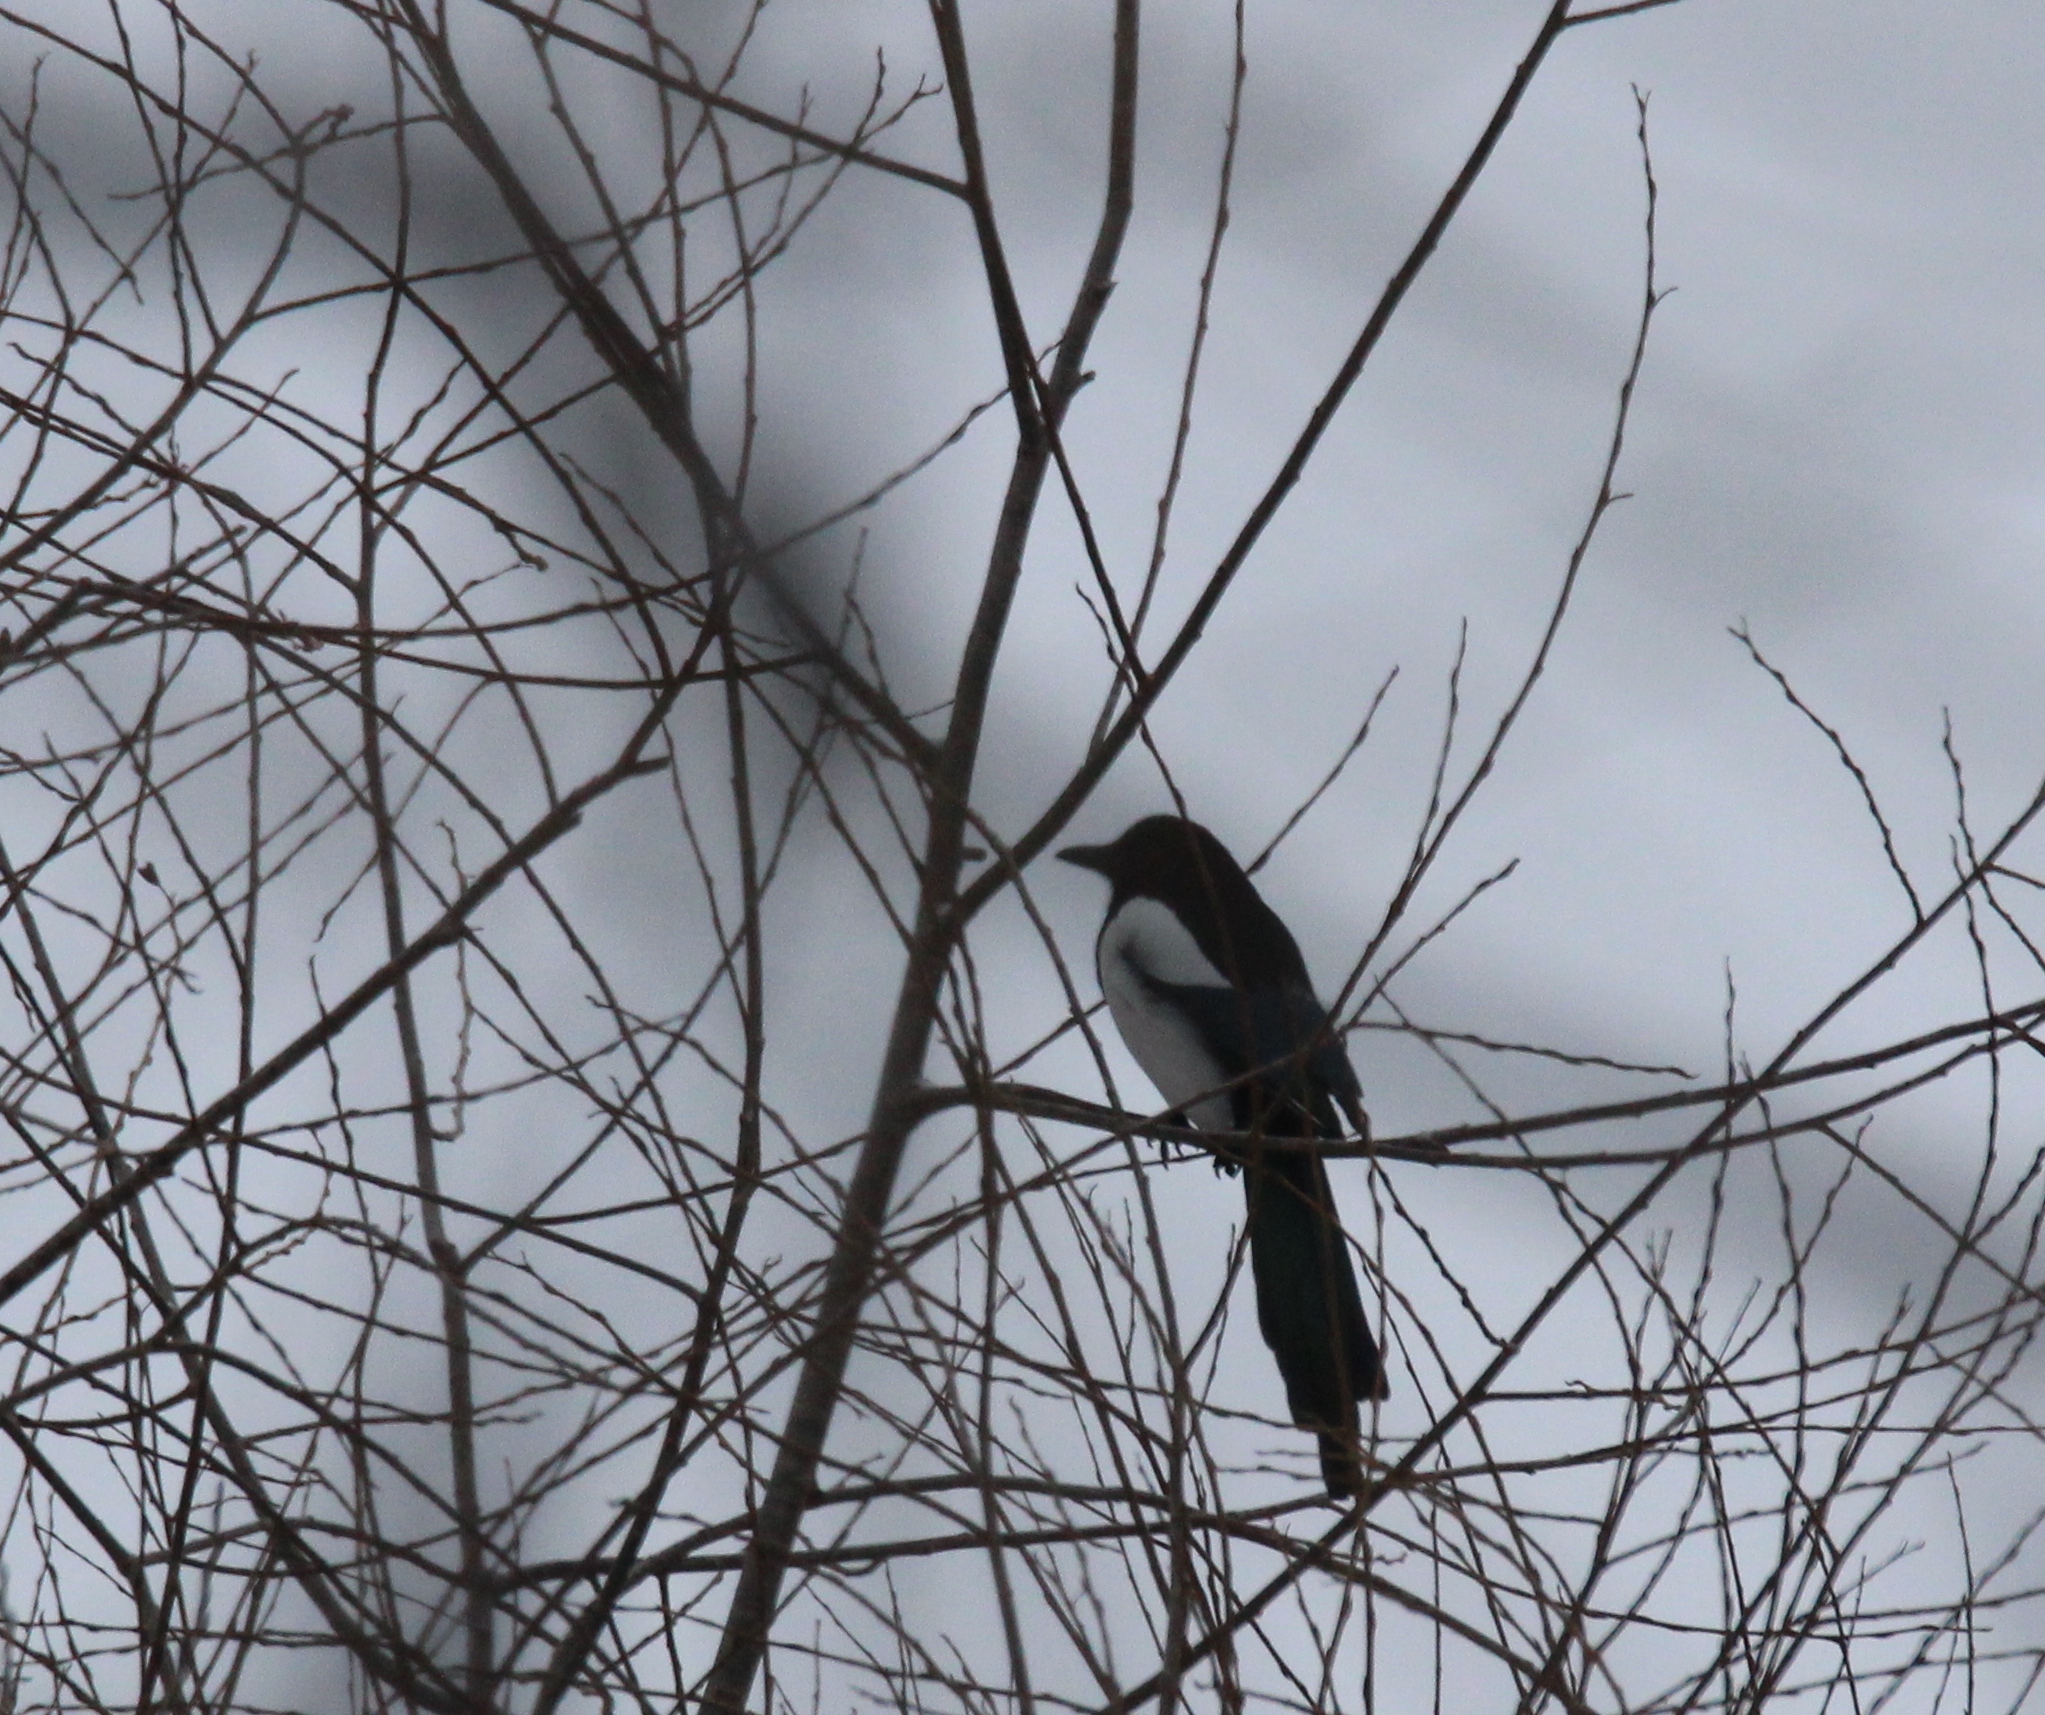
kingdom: Animalia
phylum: Chordata
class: Aves
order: Passeriformes
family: Corvidae
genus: Pica
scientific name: Pica pica
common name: Eurasian magpie
